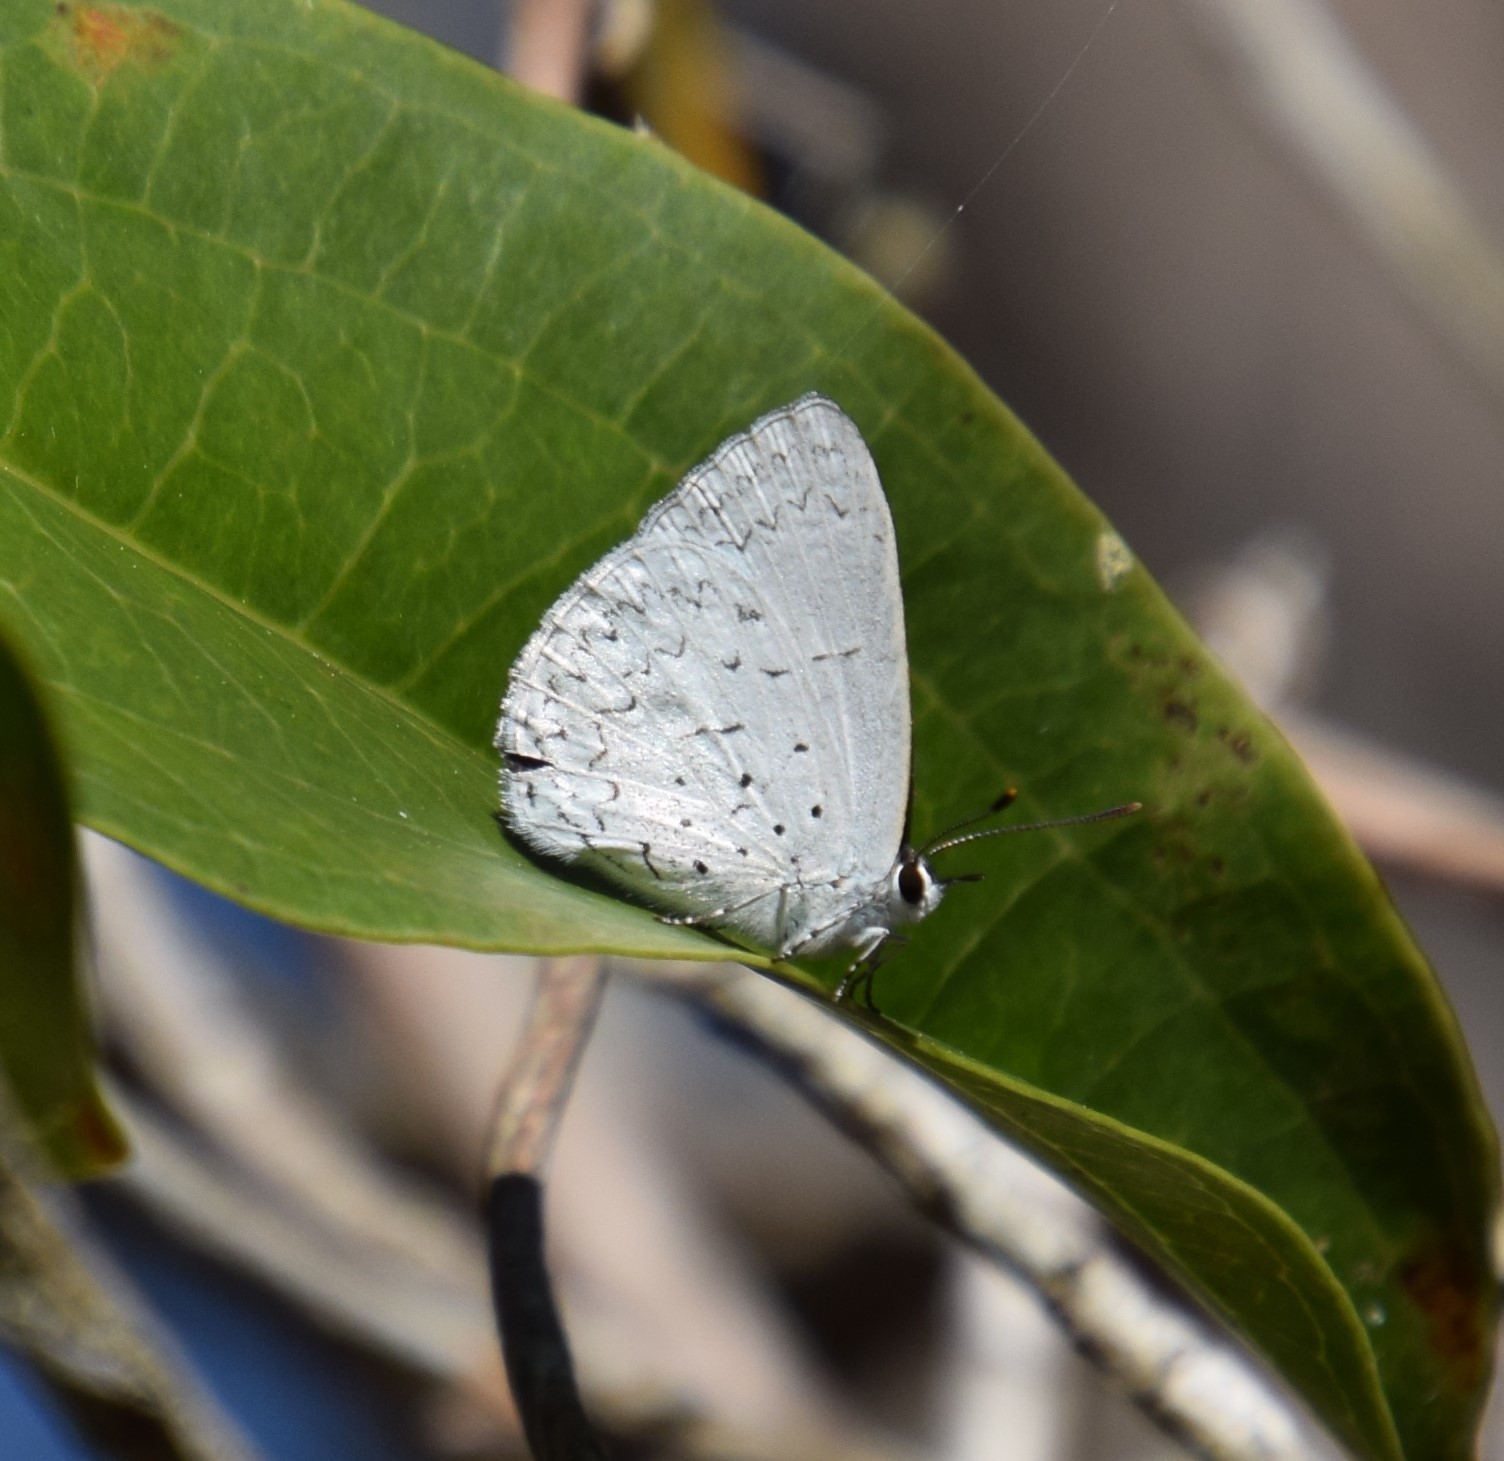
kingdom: Animalia
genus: Eirmocides
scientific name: Eirmocides
